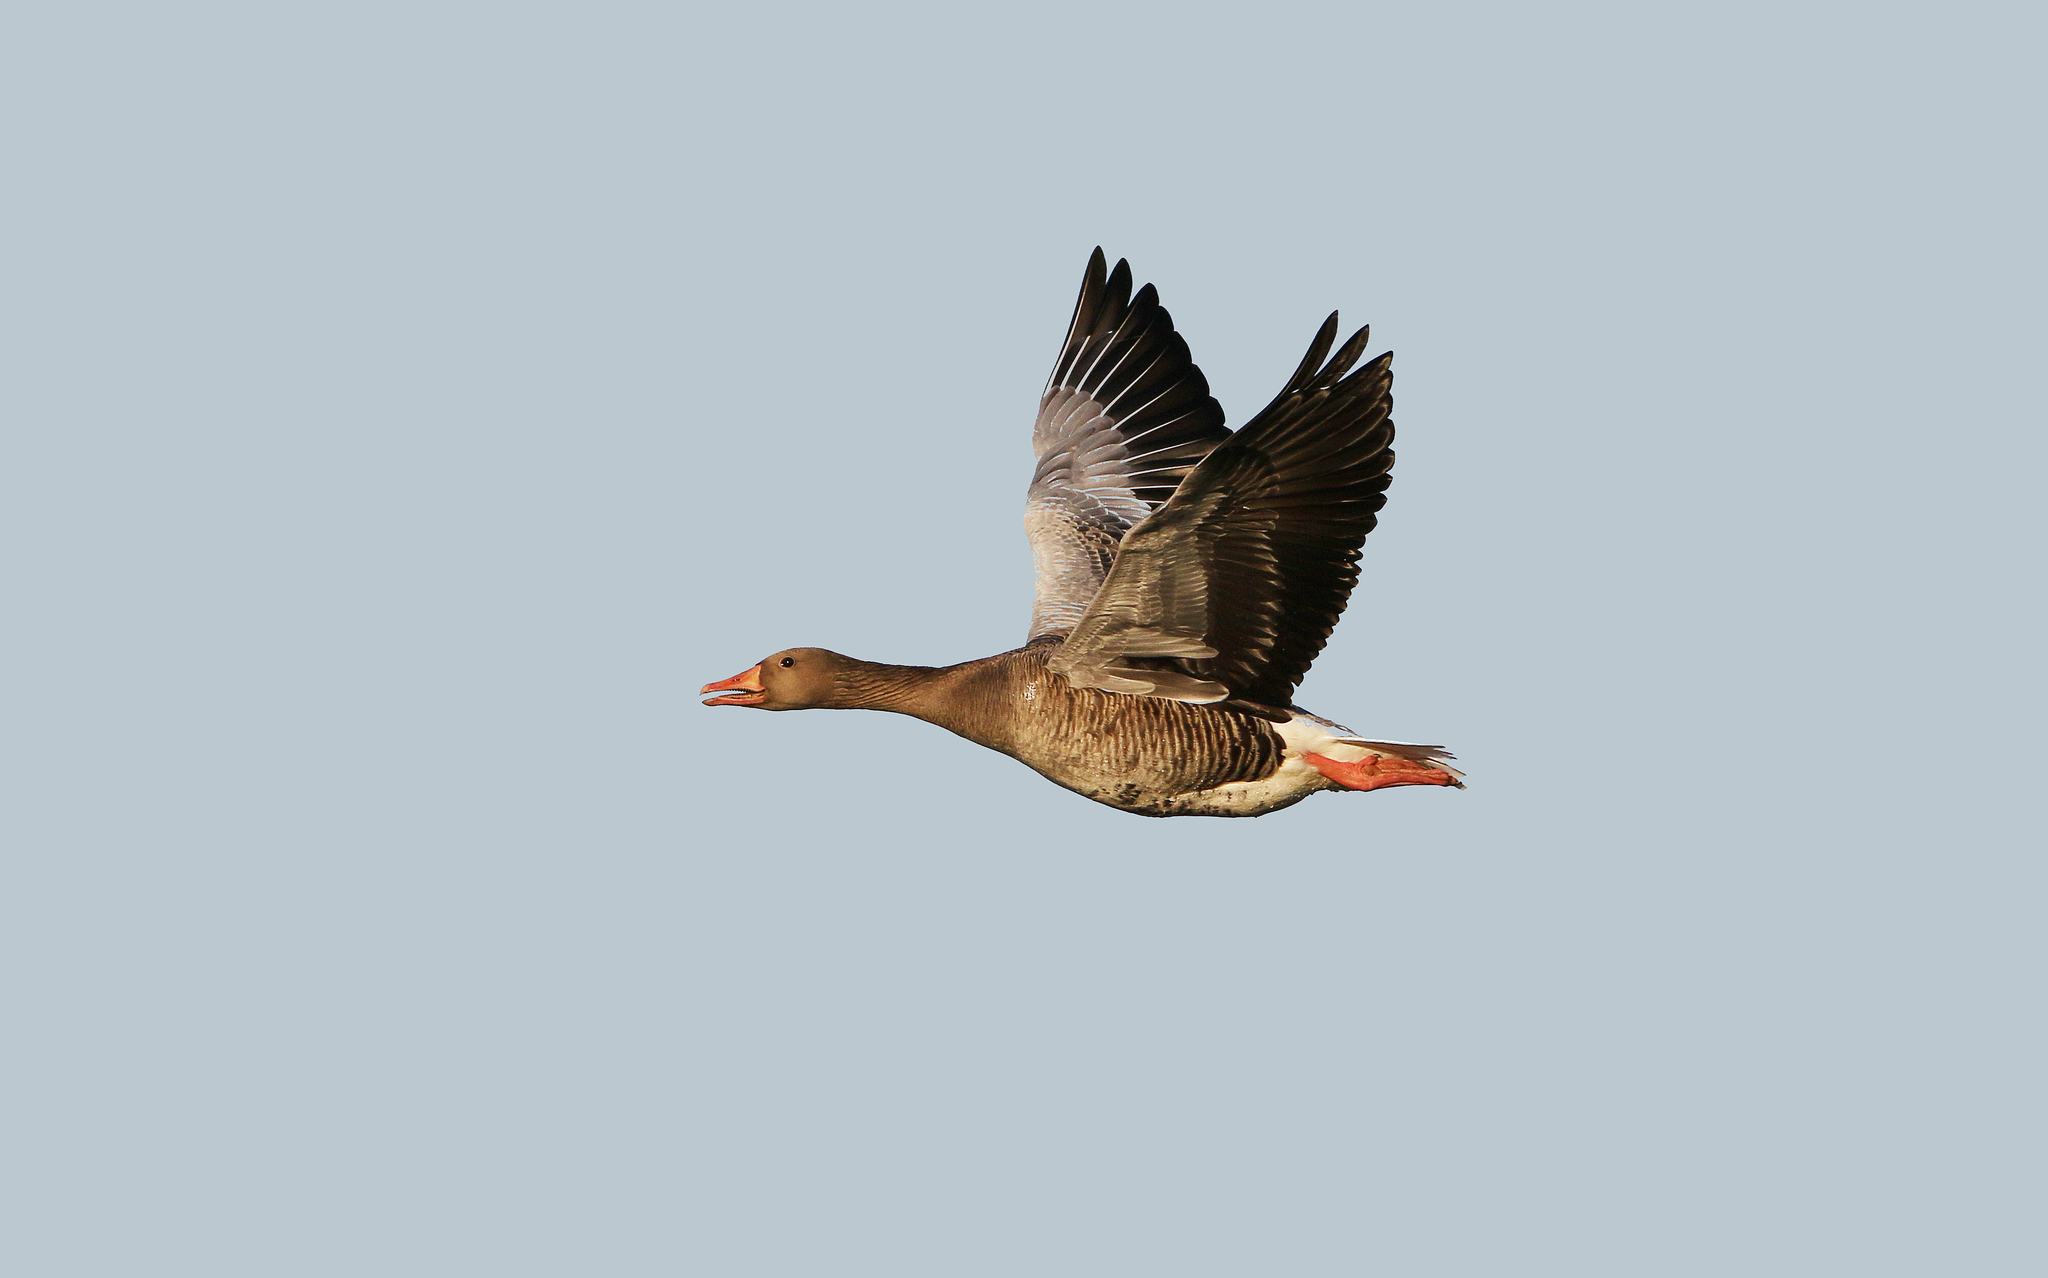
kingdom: Animalia
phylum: Chordata
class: Aves
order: Anseriformes
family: Anatidae
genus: Anser
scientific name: Anser anser
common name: Greylag goose
